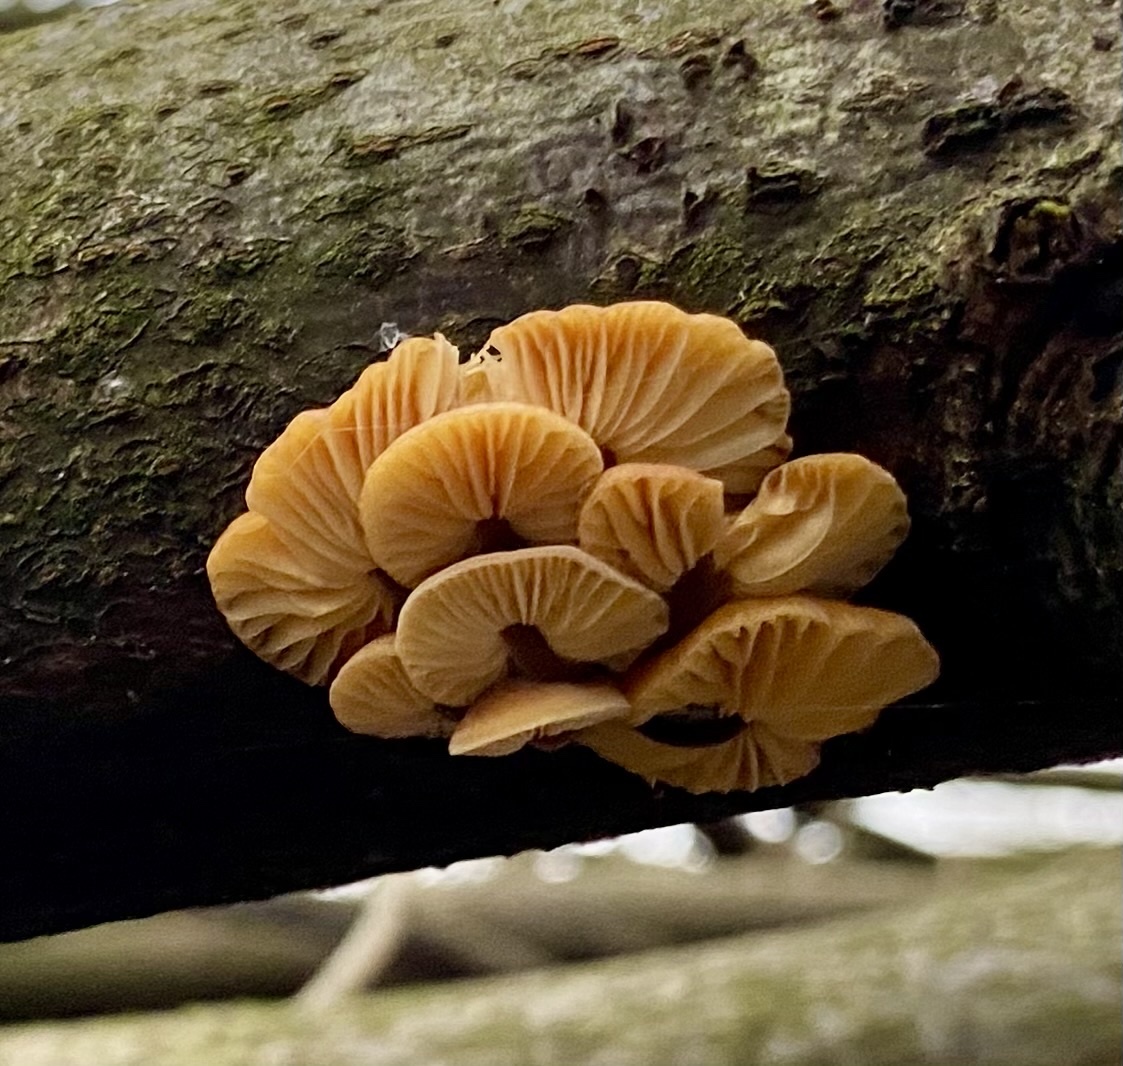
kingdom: Fungi
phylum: Basidiomycota
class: Agaricomycetes
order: Agaricales
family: Physalacriaceae
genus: Flammulina
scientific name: Flammulina
